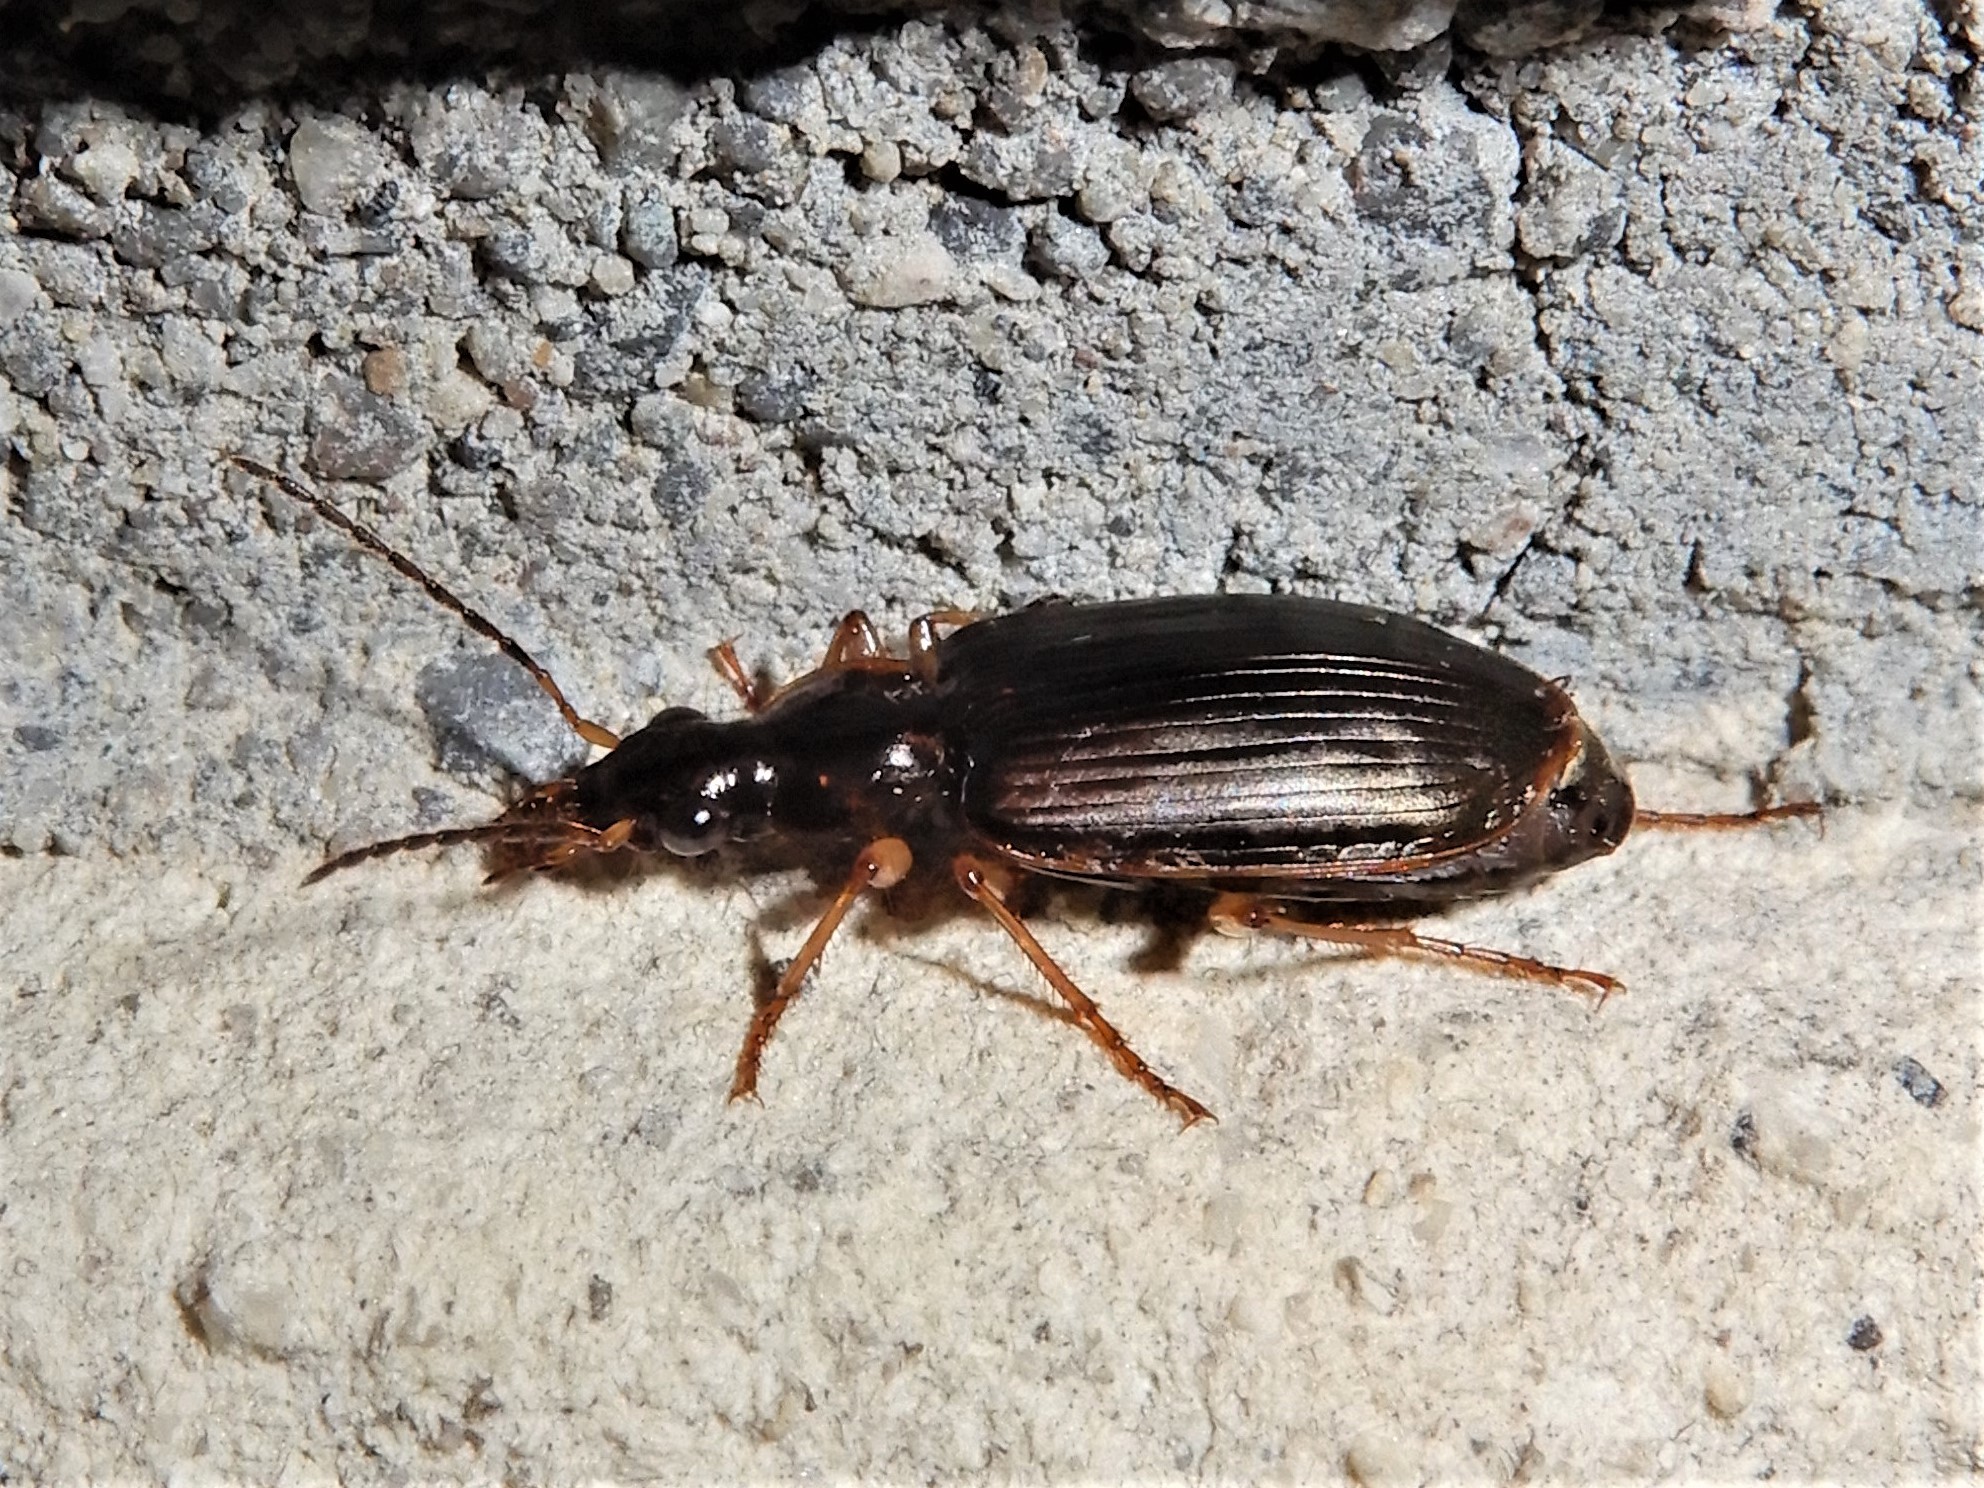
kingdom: Animalia
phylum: Arthropoda
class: Insecta
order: Coleoptera
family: Carabidae
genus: Notagonum
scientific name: Notagonum submetallicum
